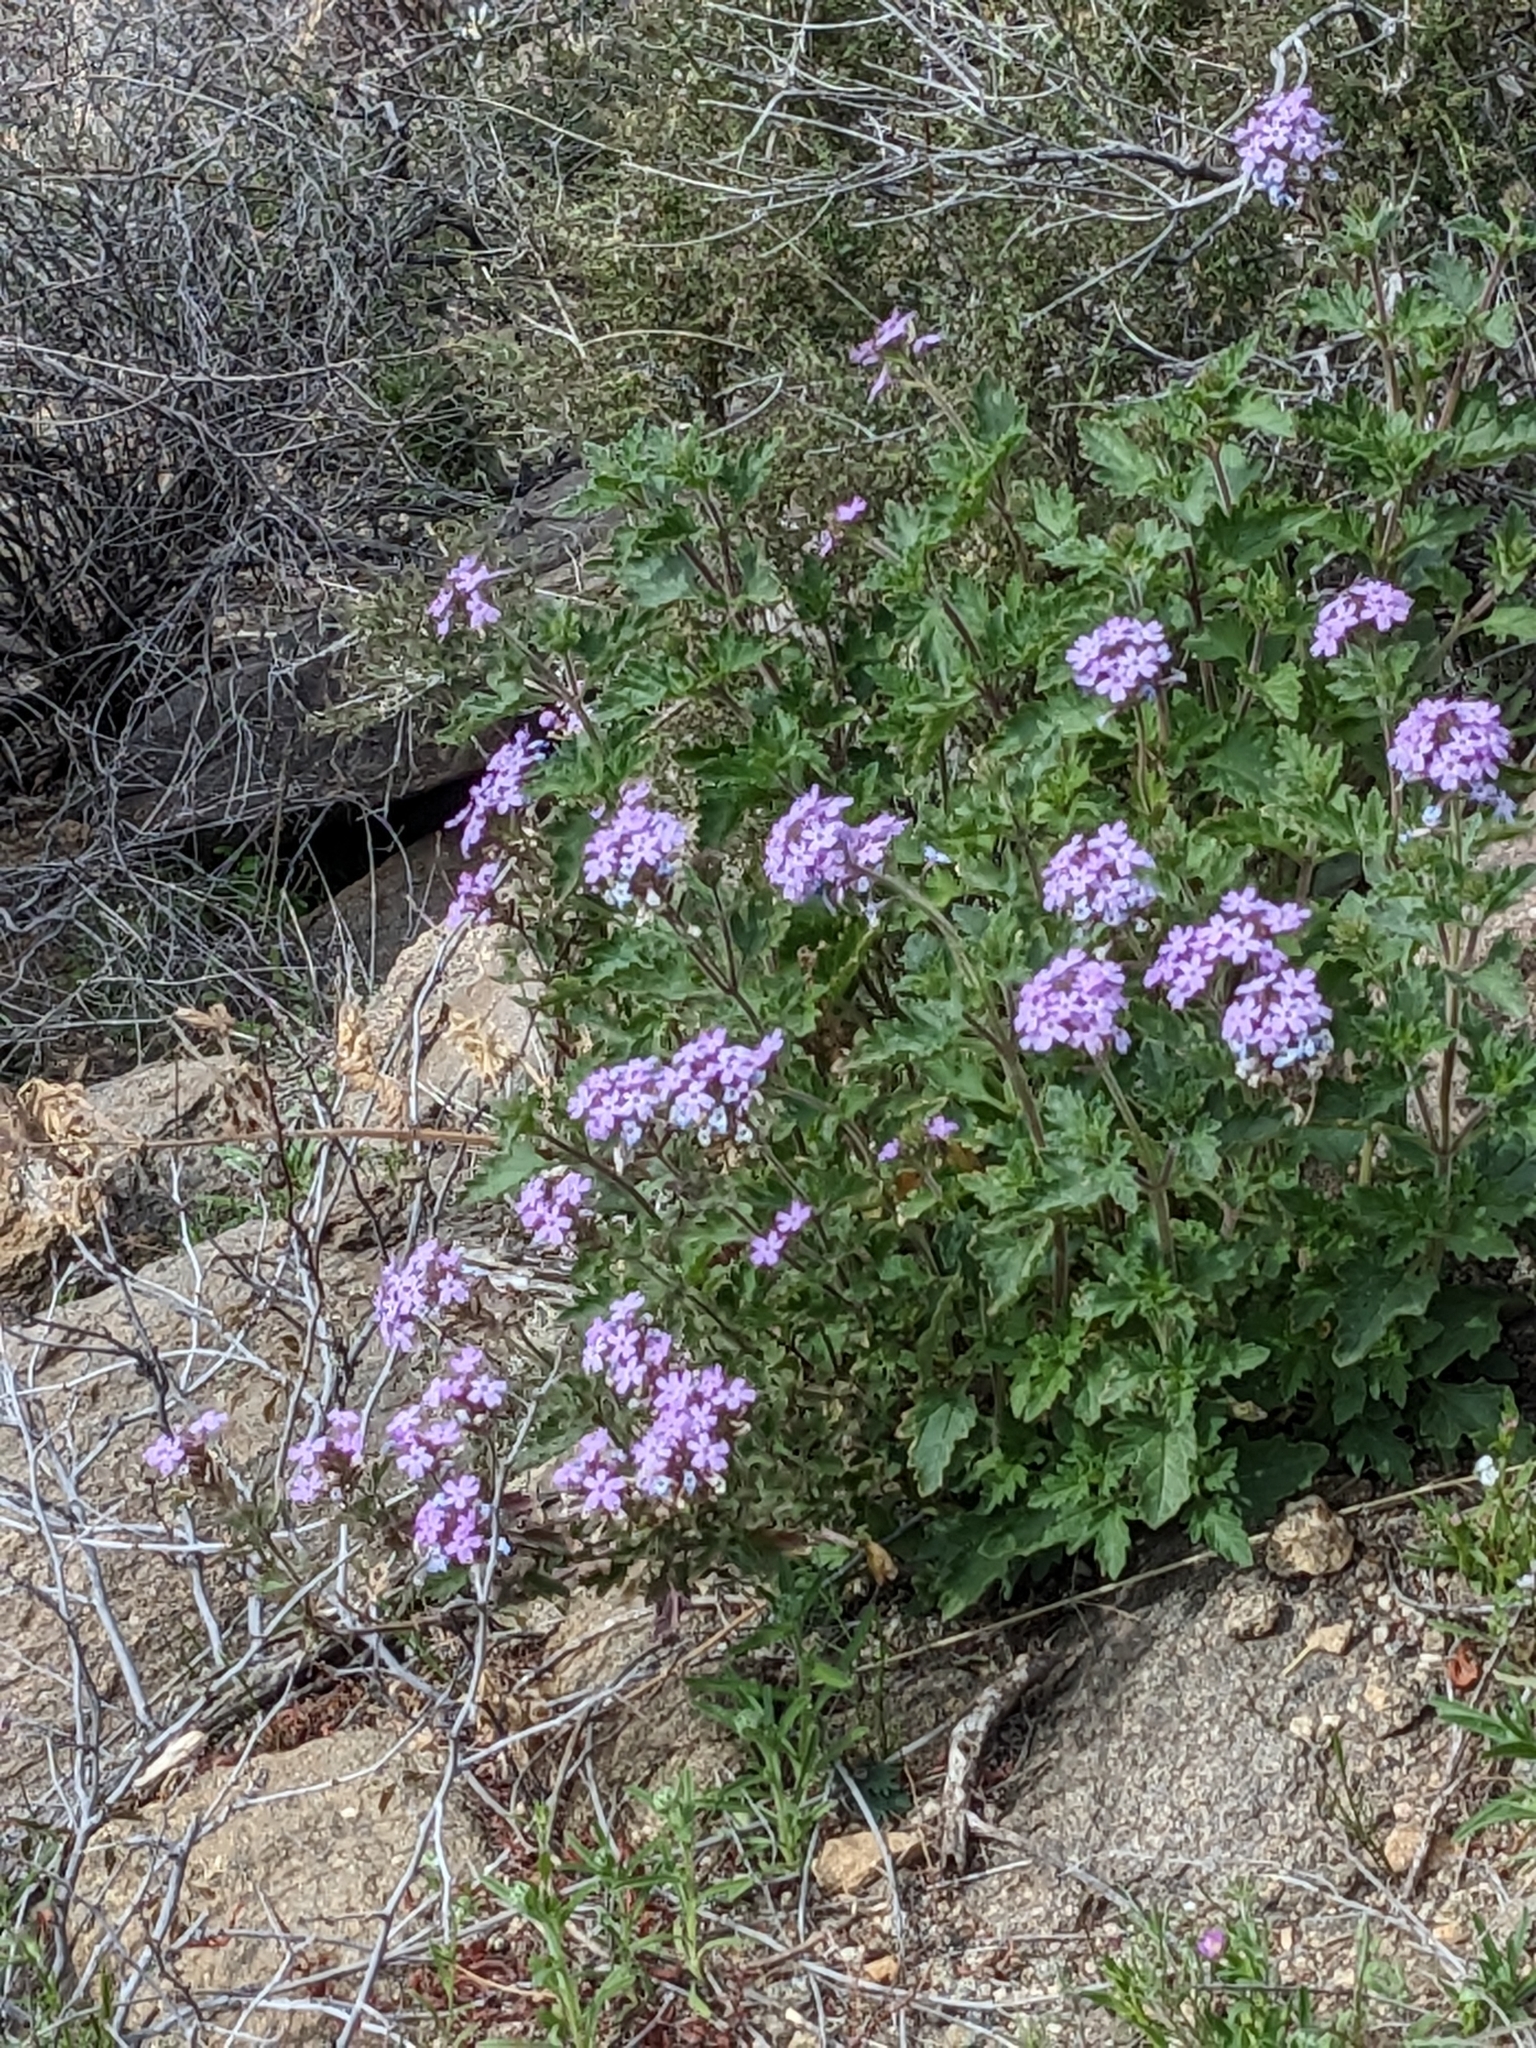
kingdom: Plantae
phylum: Tracheophyta
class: Magnoliopsida
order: Lamiales
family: Verbenaceae
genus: Verbena
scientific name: Verbena gooddingii
